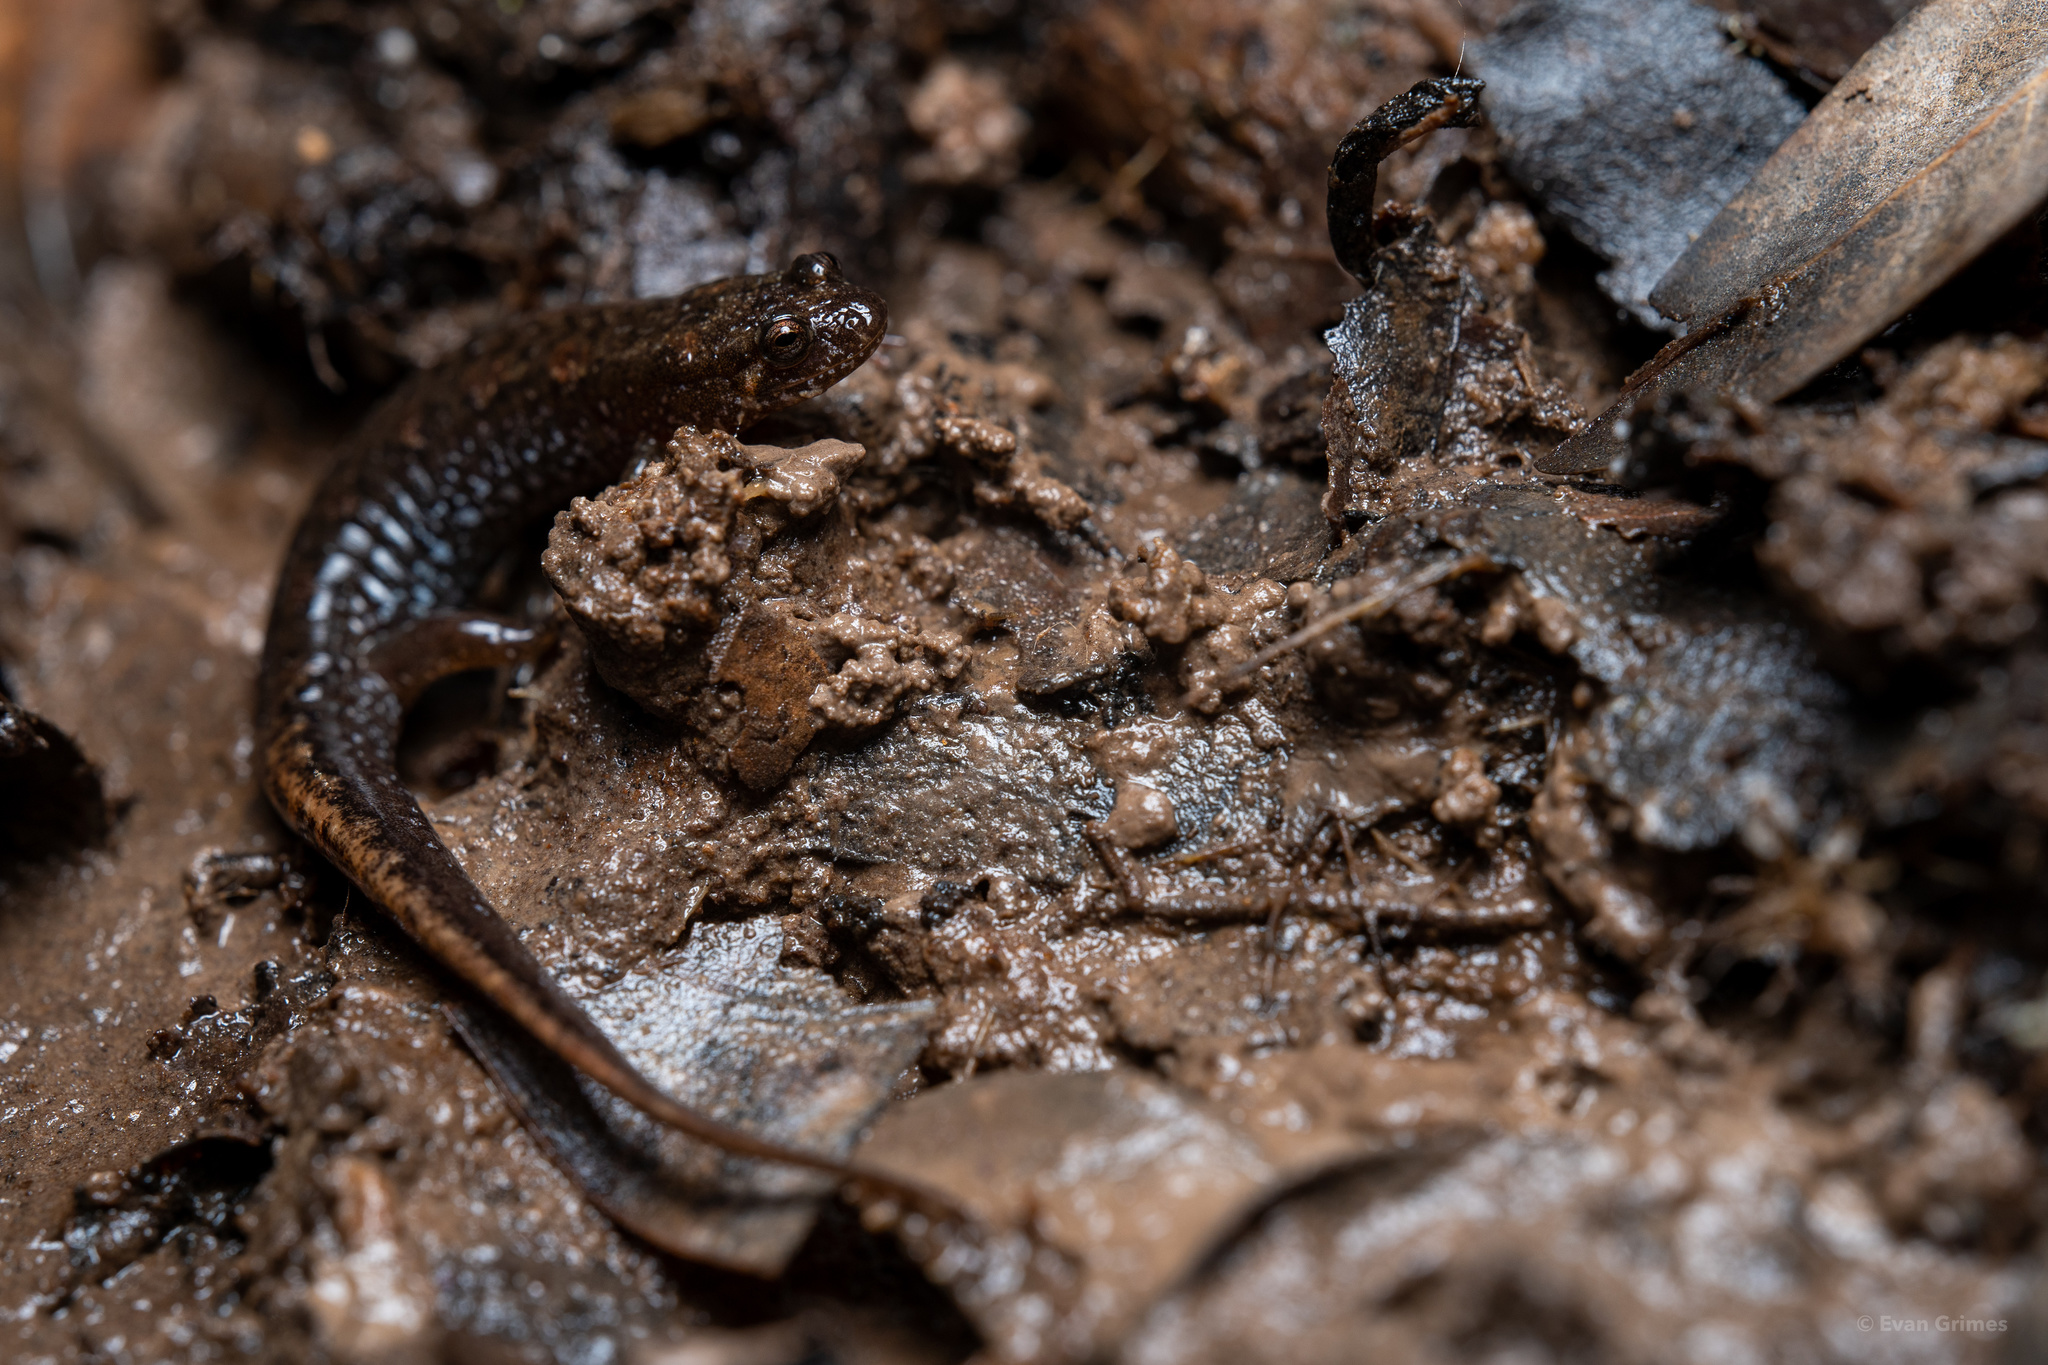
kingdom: Animalia
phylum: Chordata
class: Amphibia
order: Caudata
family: Plethodontidae
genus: Desmognathus
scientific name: Desmognathus conanti
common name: Spotted dusky salamander
